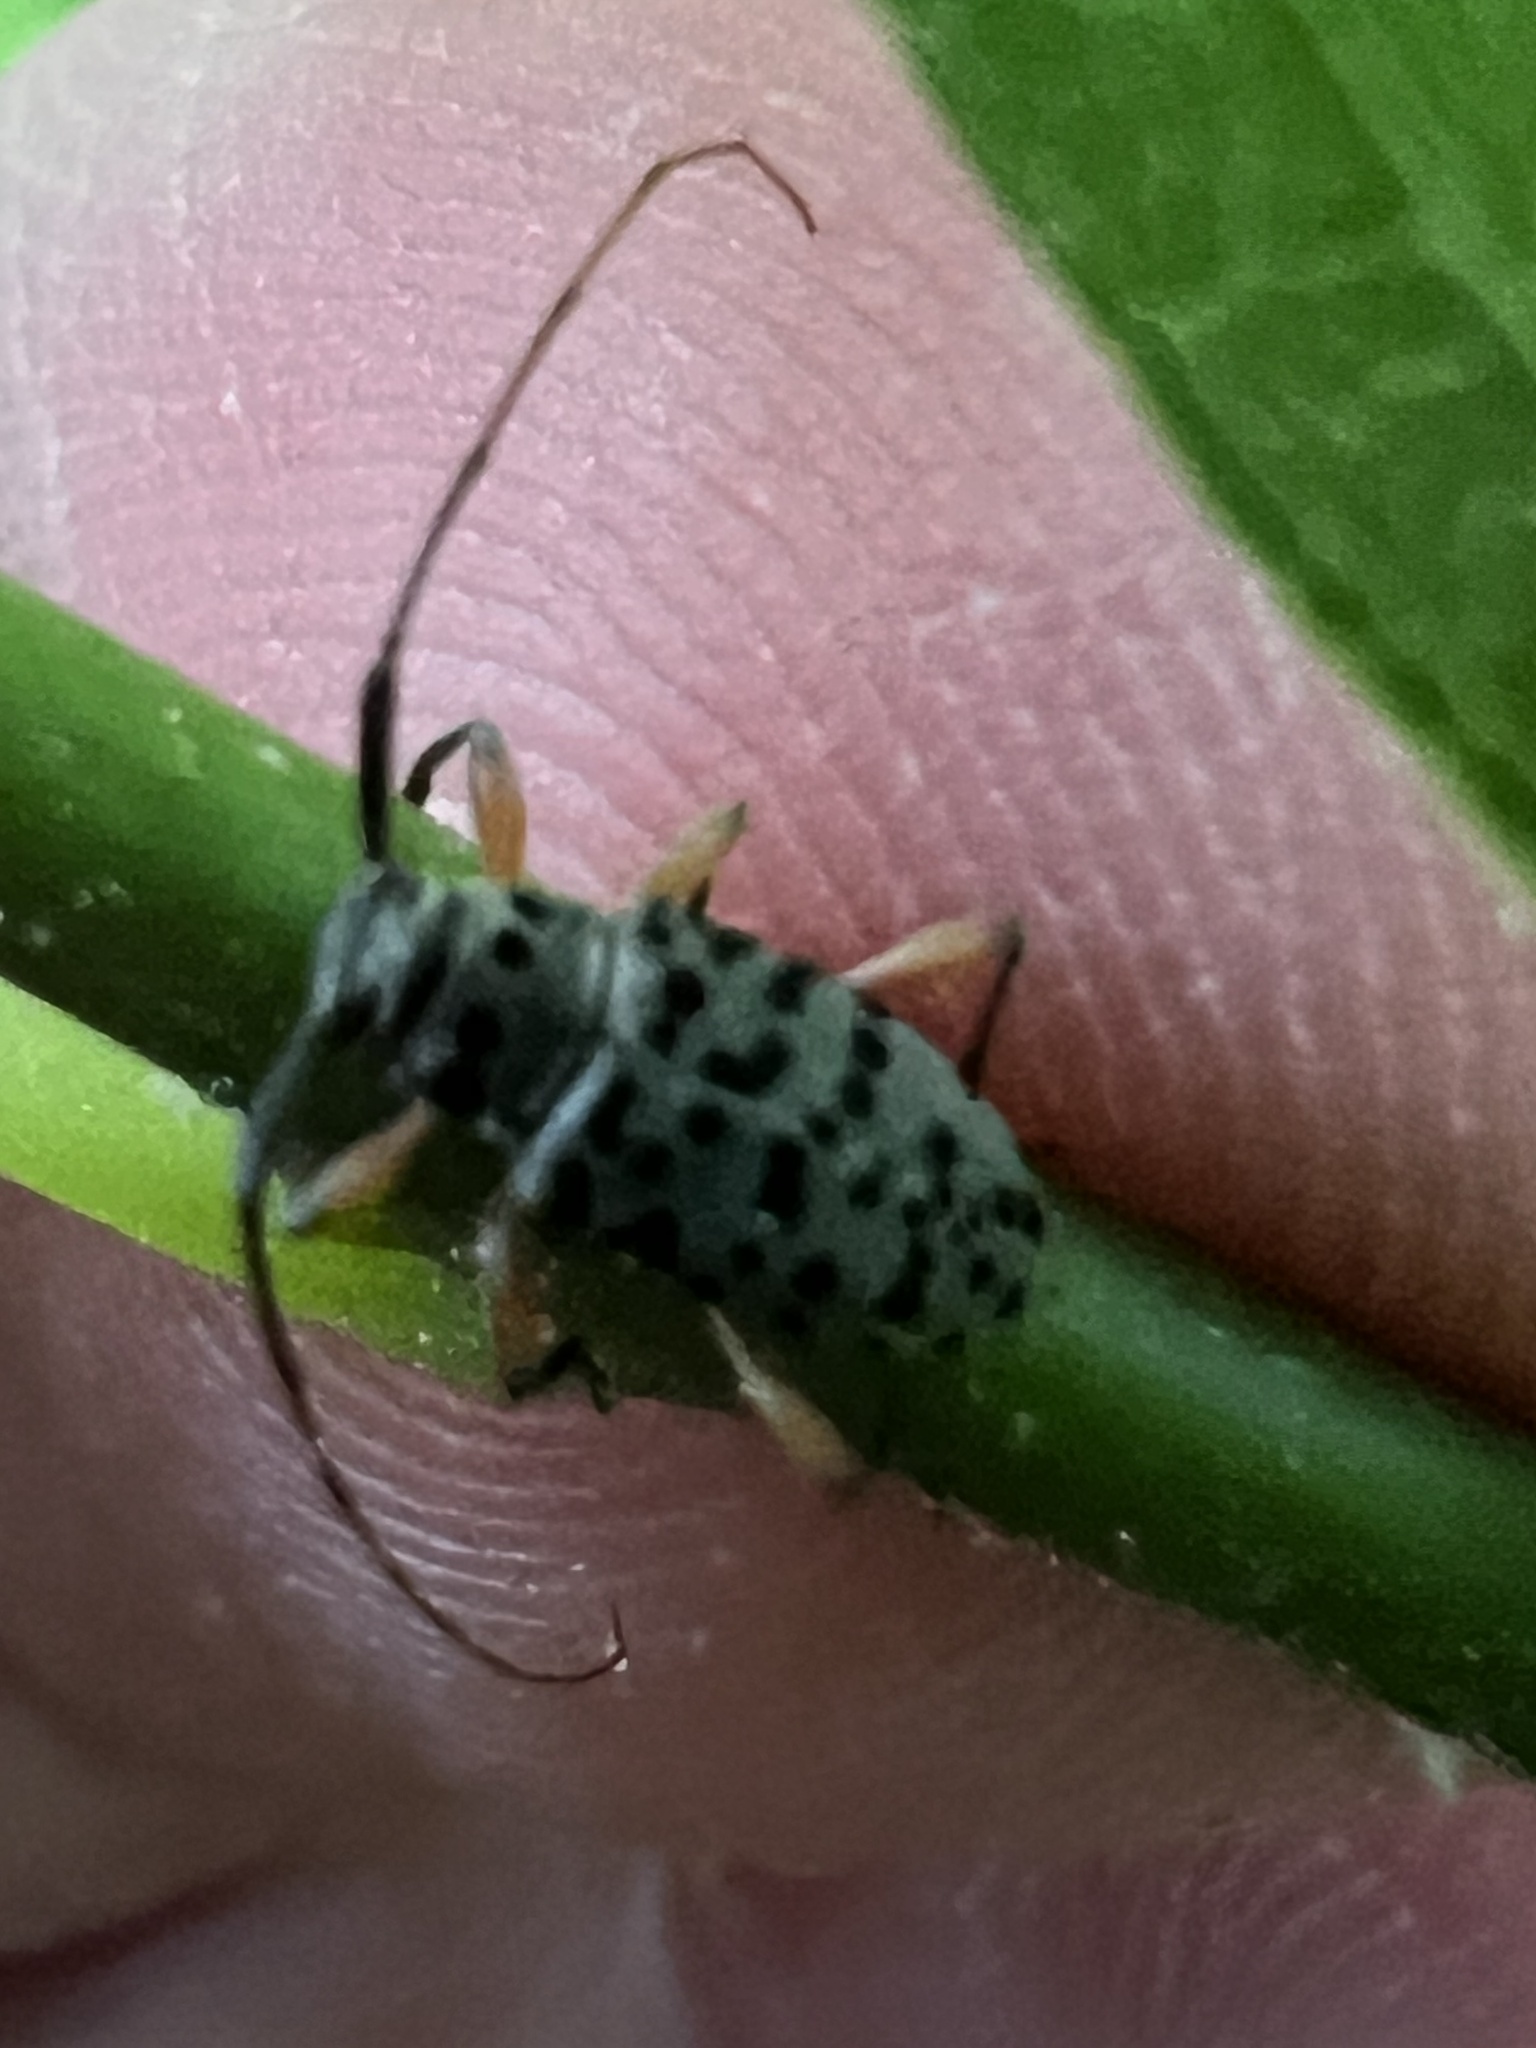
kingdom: Animalia
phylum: Arthropoda
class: Insecta
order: Coleoptera
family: Cerambycidae
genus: Hyperplatys
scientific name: Hyperplatys aspersa
